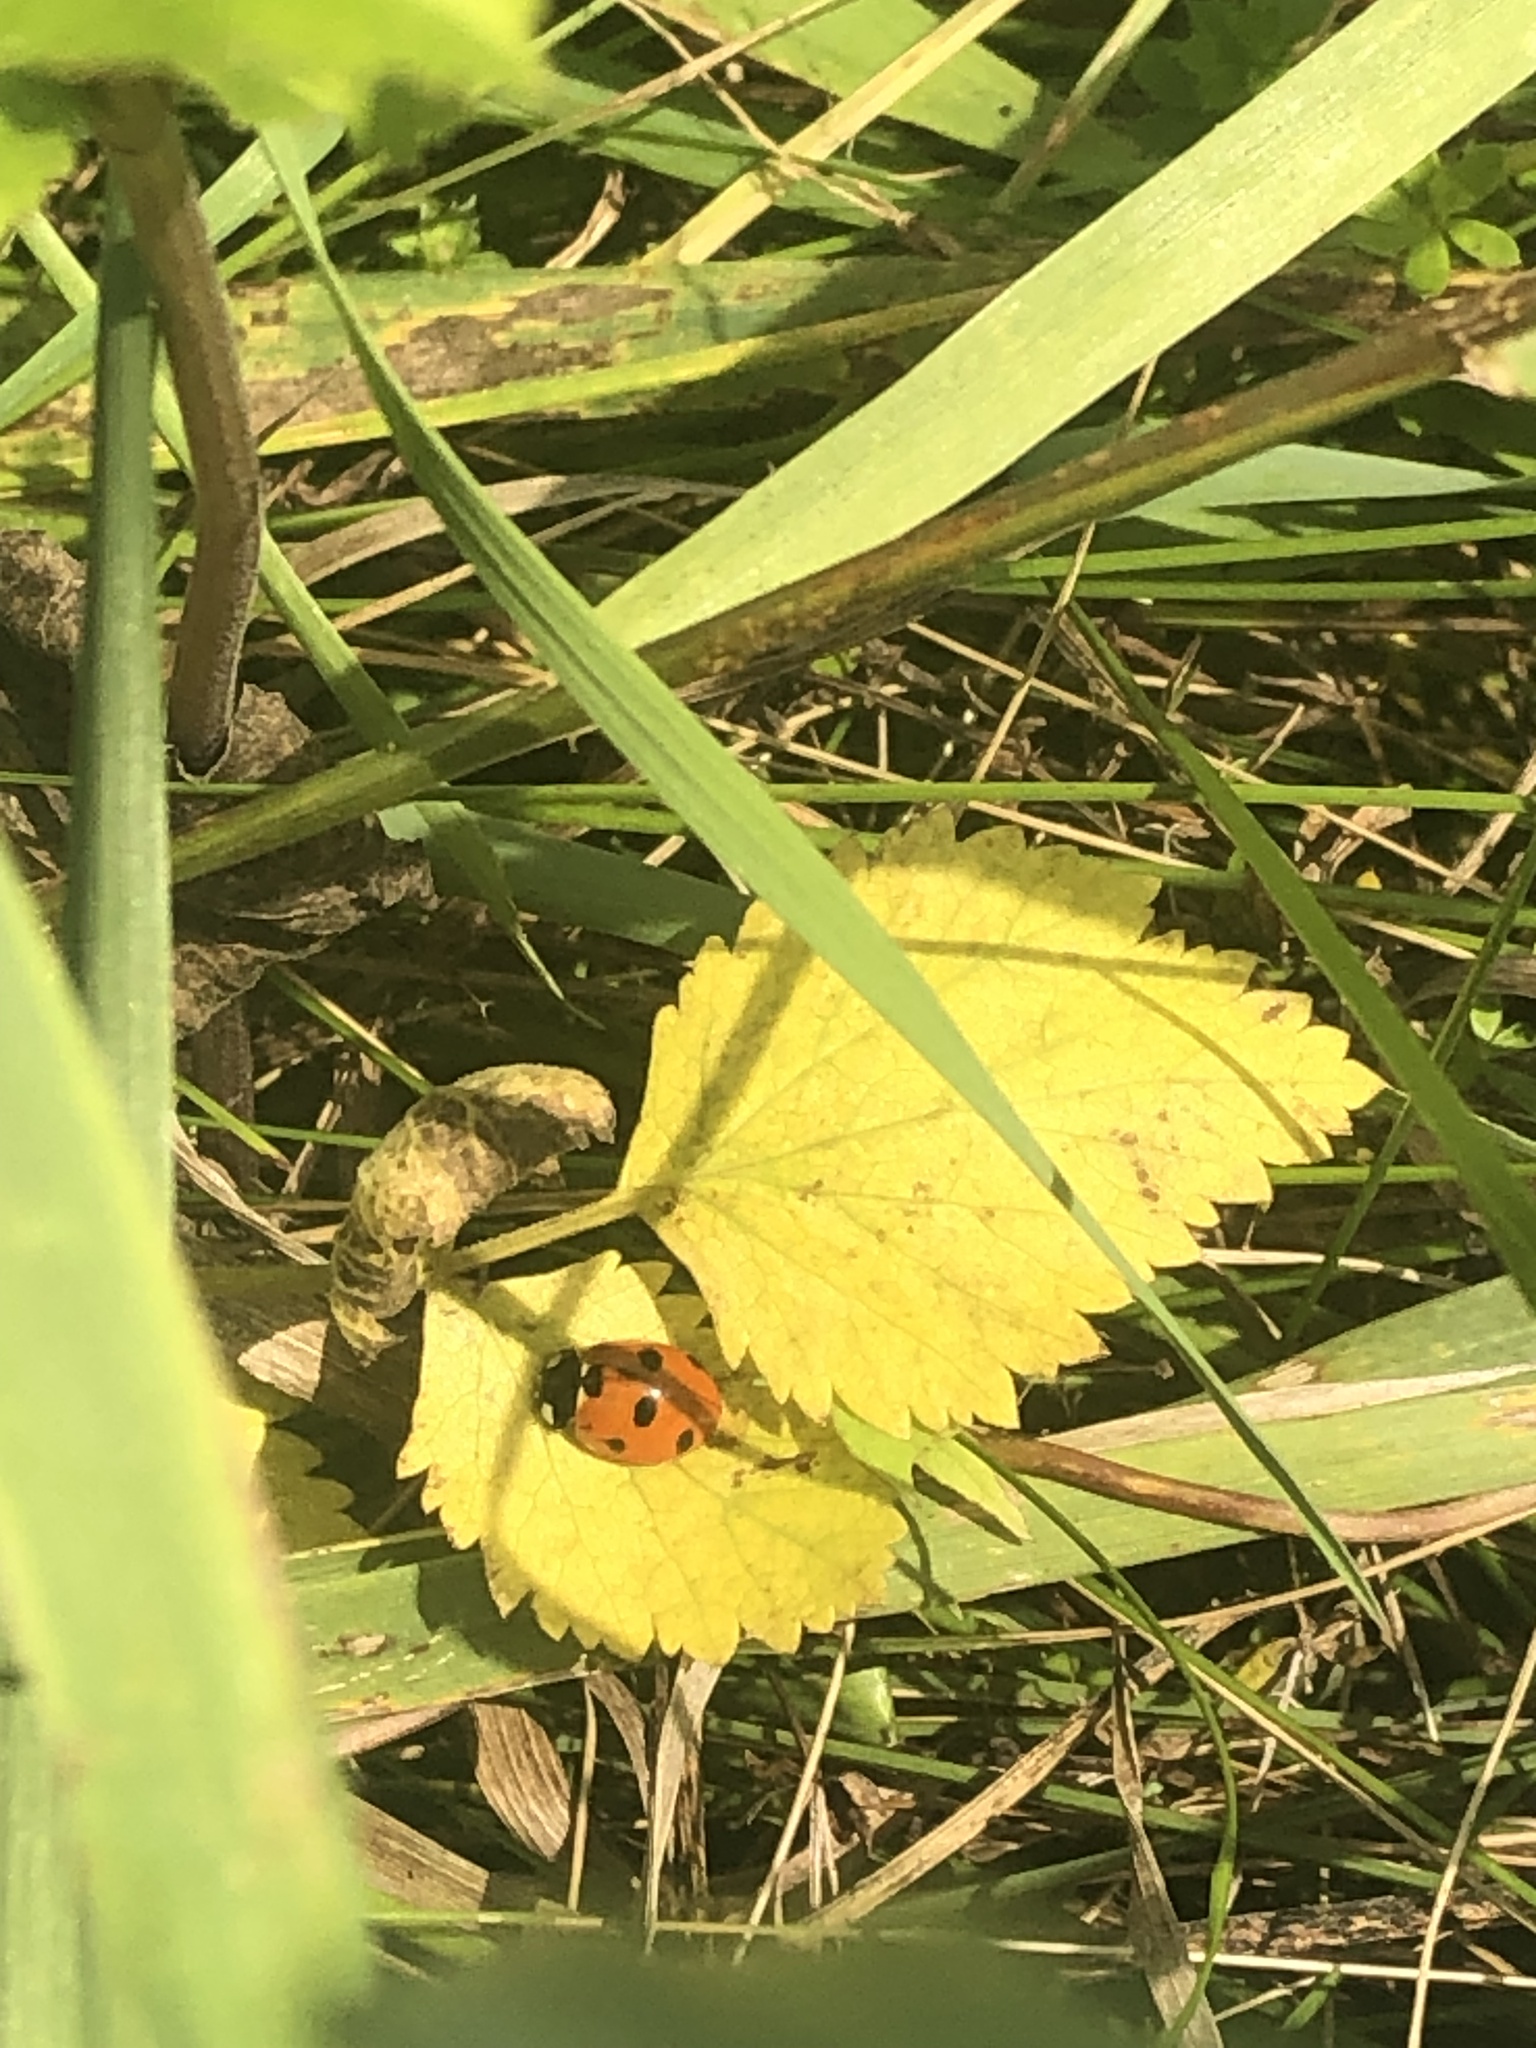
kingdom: Animalia
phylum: Arthropoda
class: Insecta
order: Coleoptera
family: Coccinellidae
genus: Coccinella
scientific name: Coccinella septempunctata
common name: Sevenspotted lady beetle
